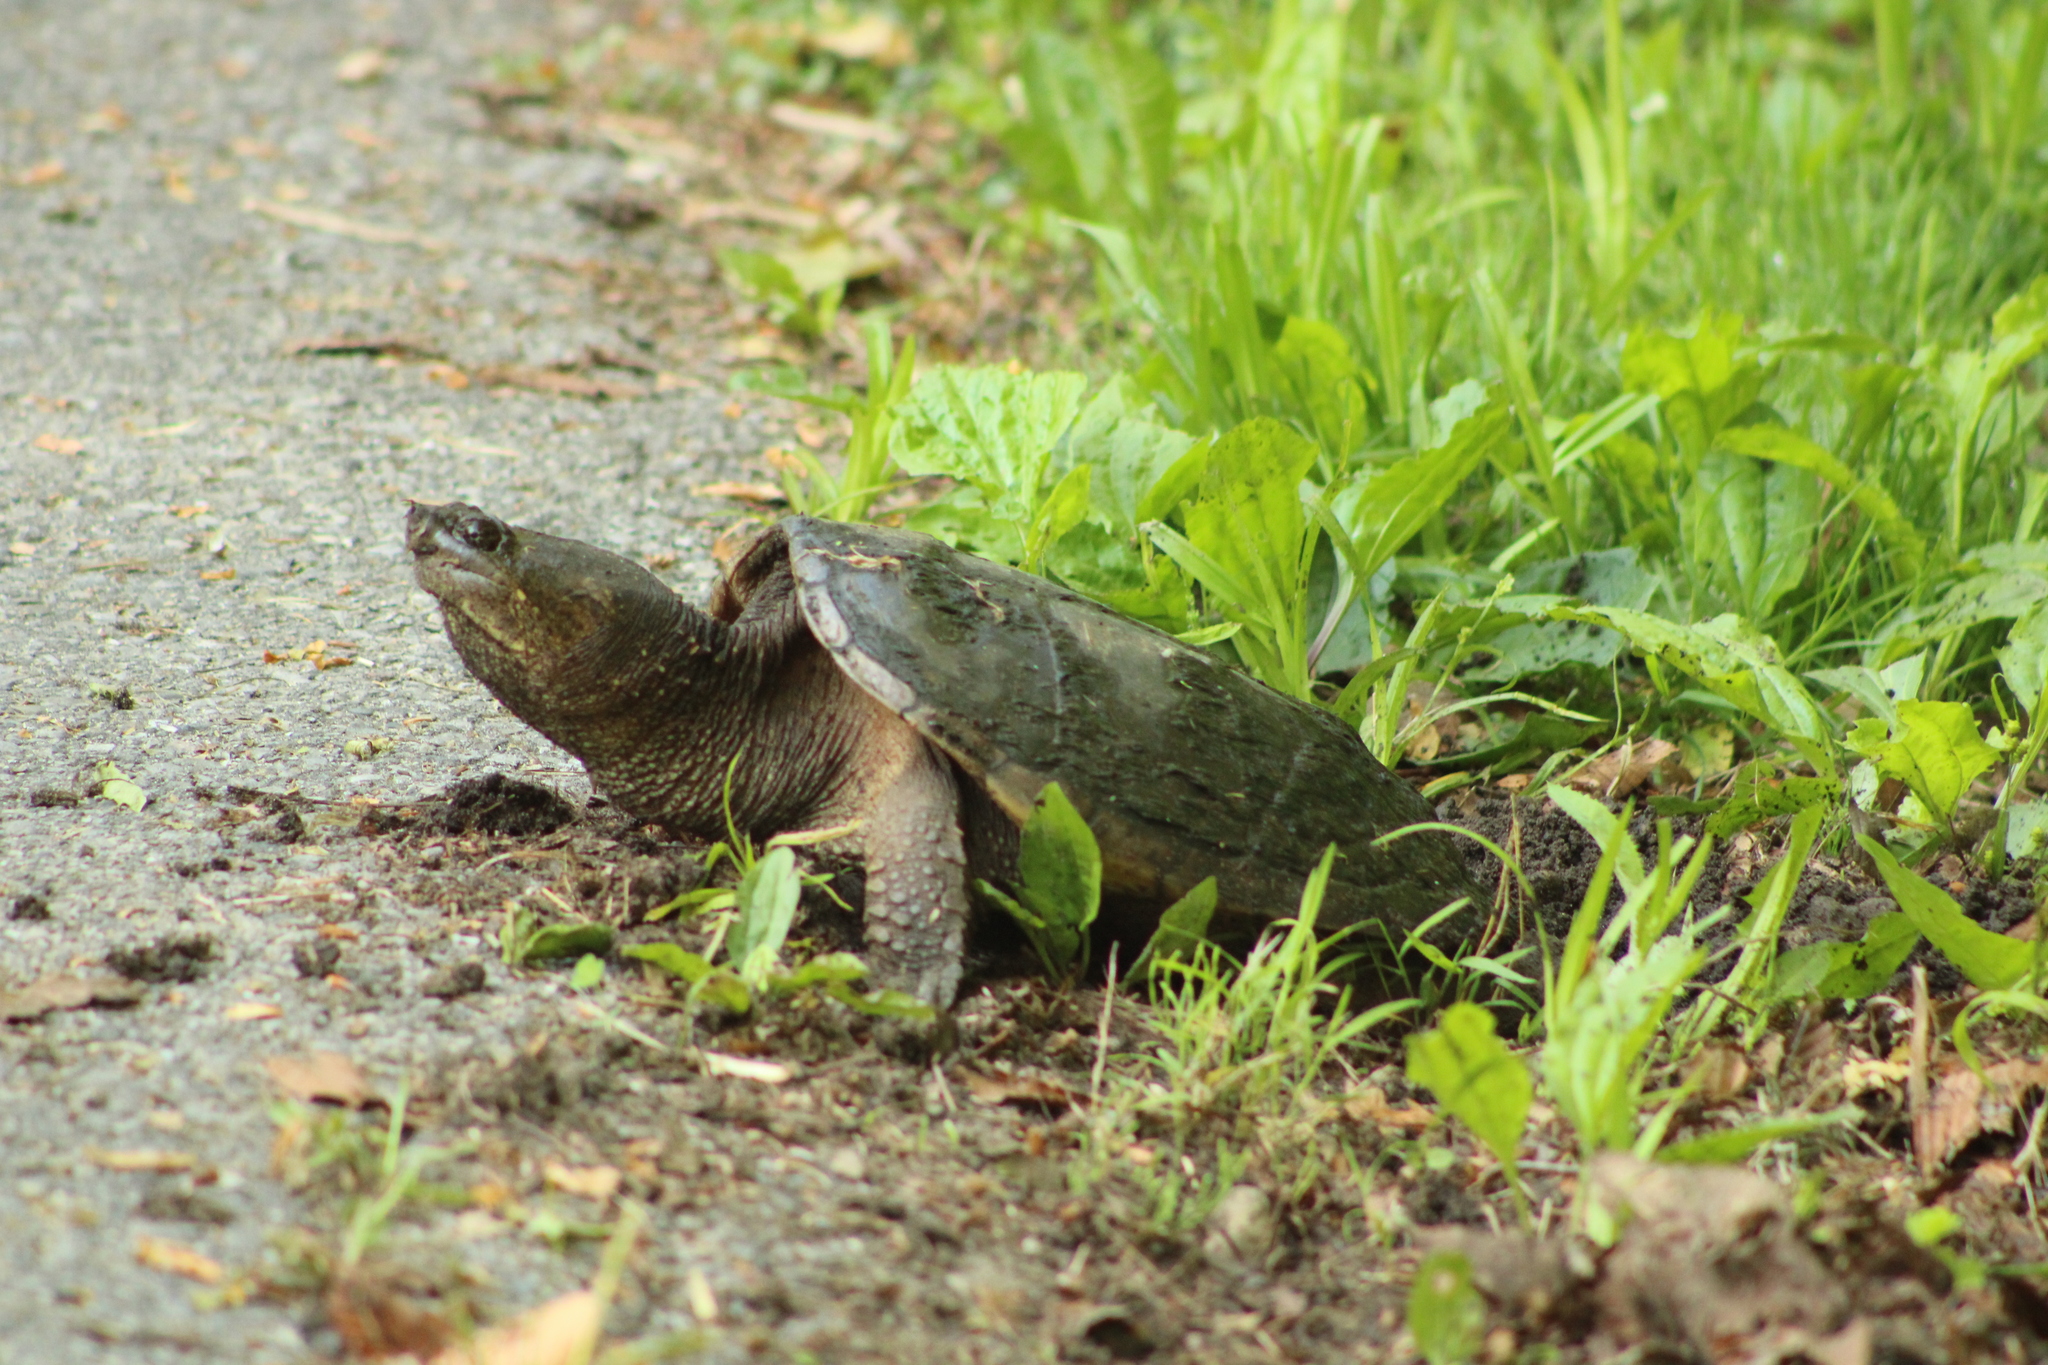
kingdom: Animalia
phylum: Chordata
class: Testudines
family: Chelydridae
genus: Chelydra
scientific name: Chelydra serpentina
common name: Common snapping turtle
